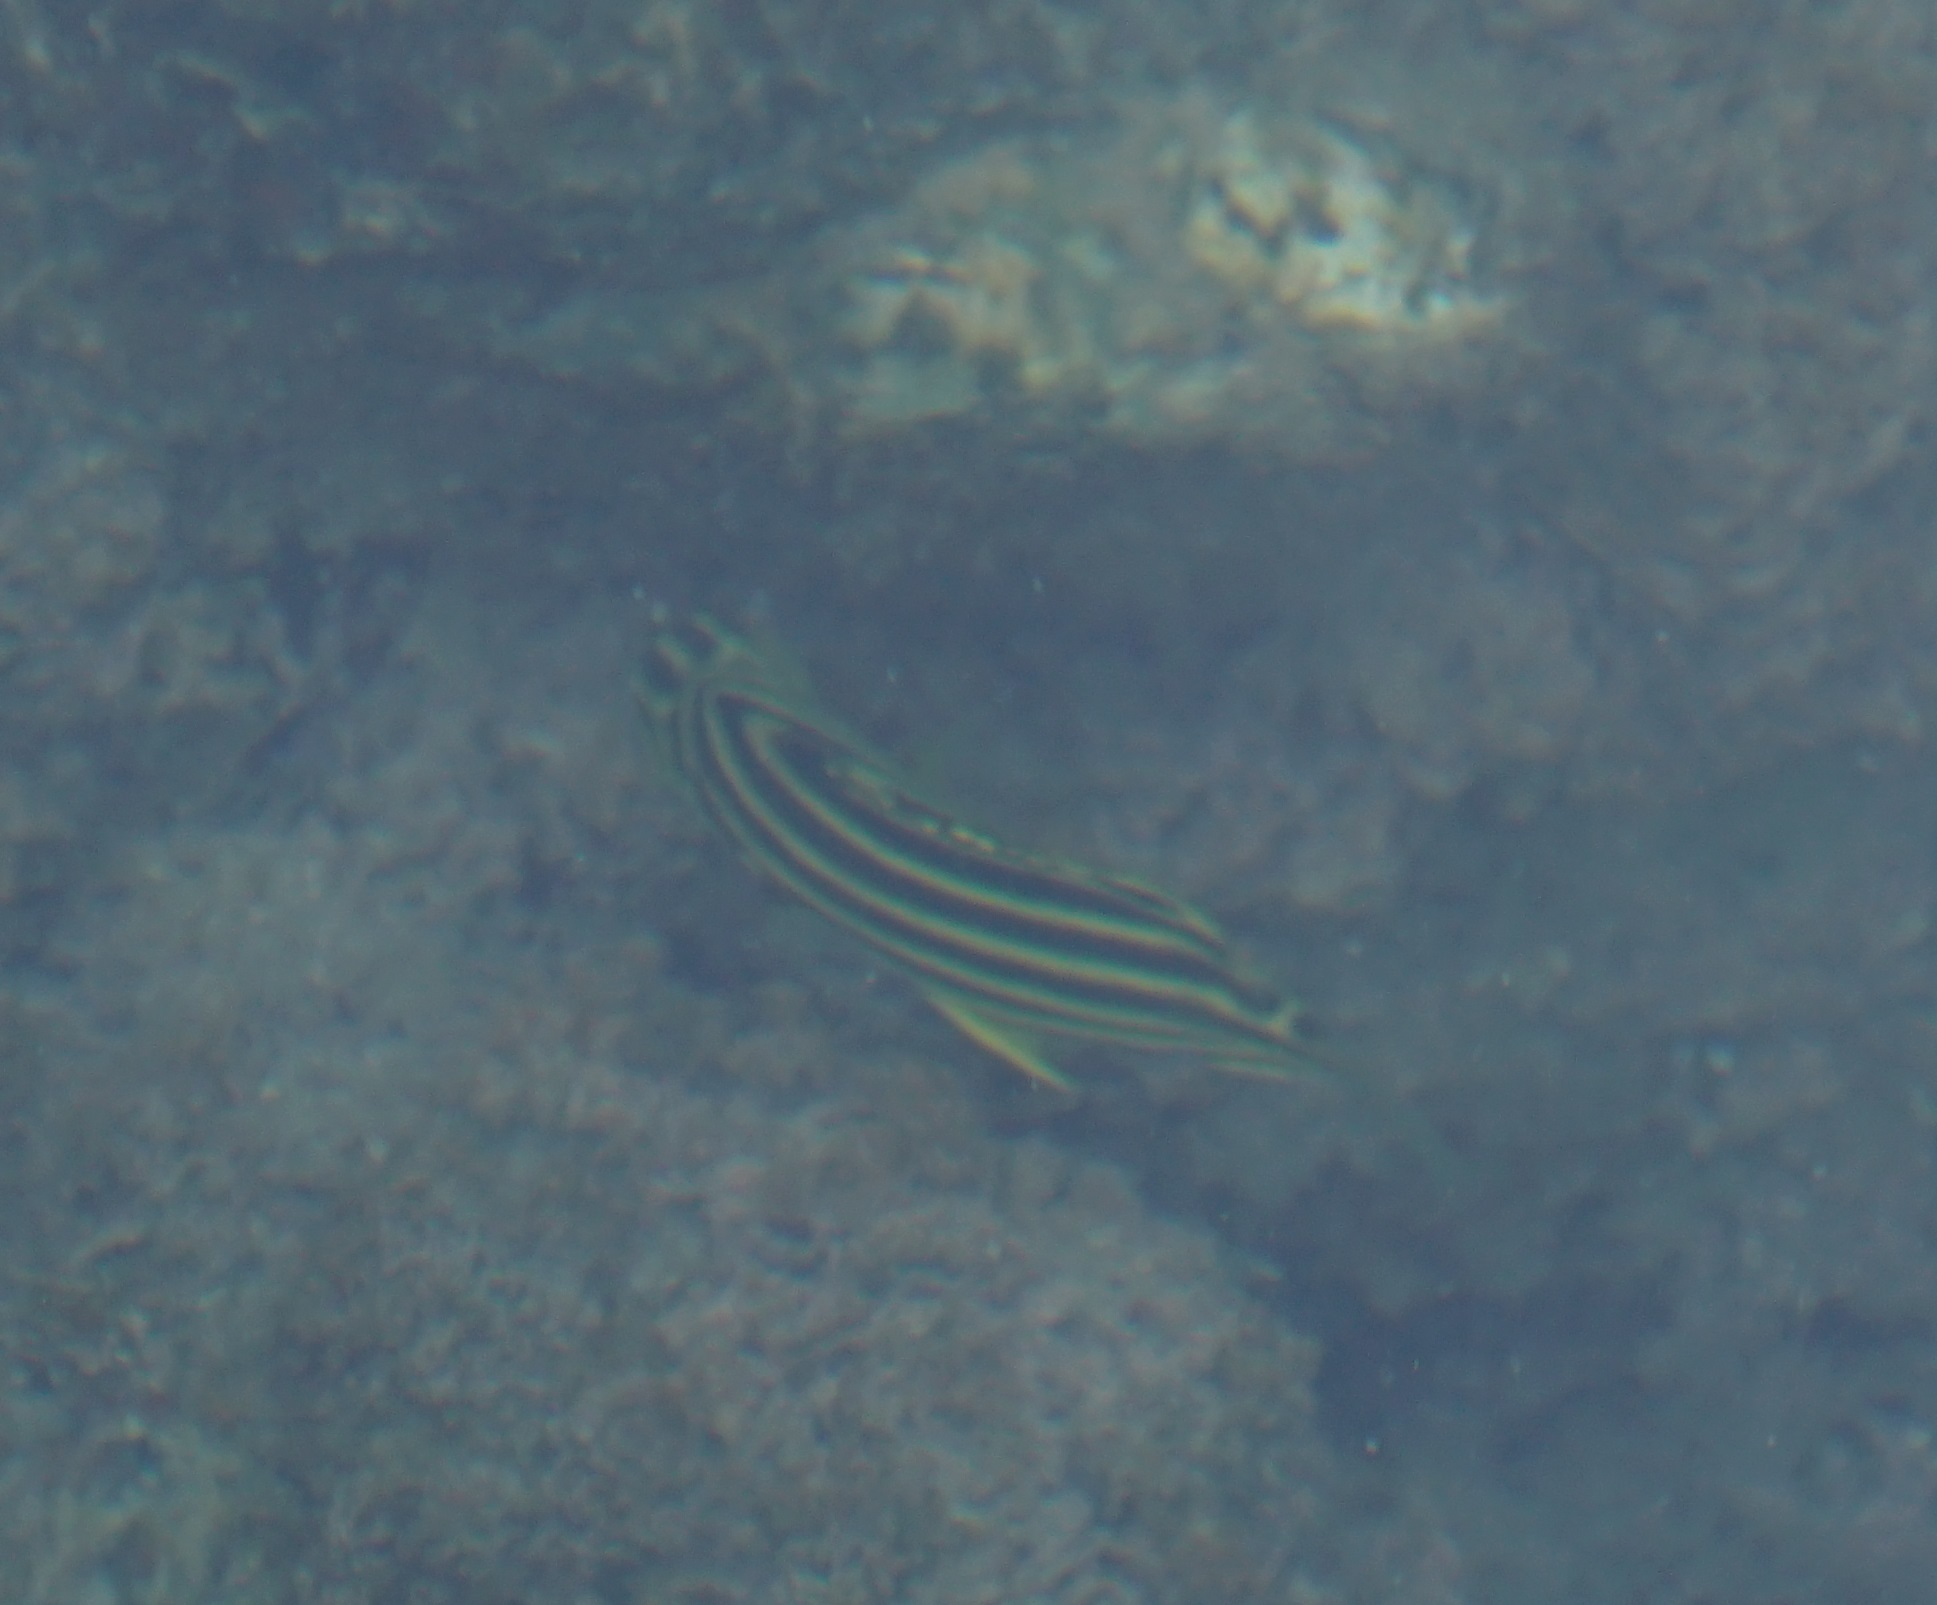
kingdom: Animalia
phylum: Chordata
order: Perciformes
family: Kyphosidae
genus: Microcanthus
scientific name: Microcanthus joyceae
